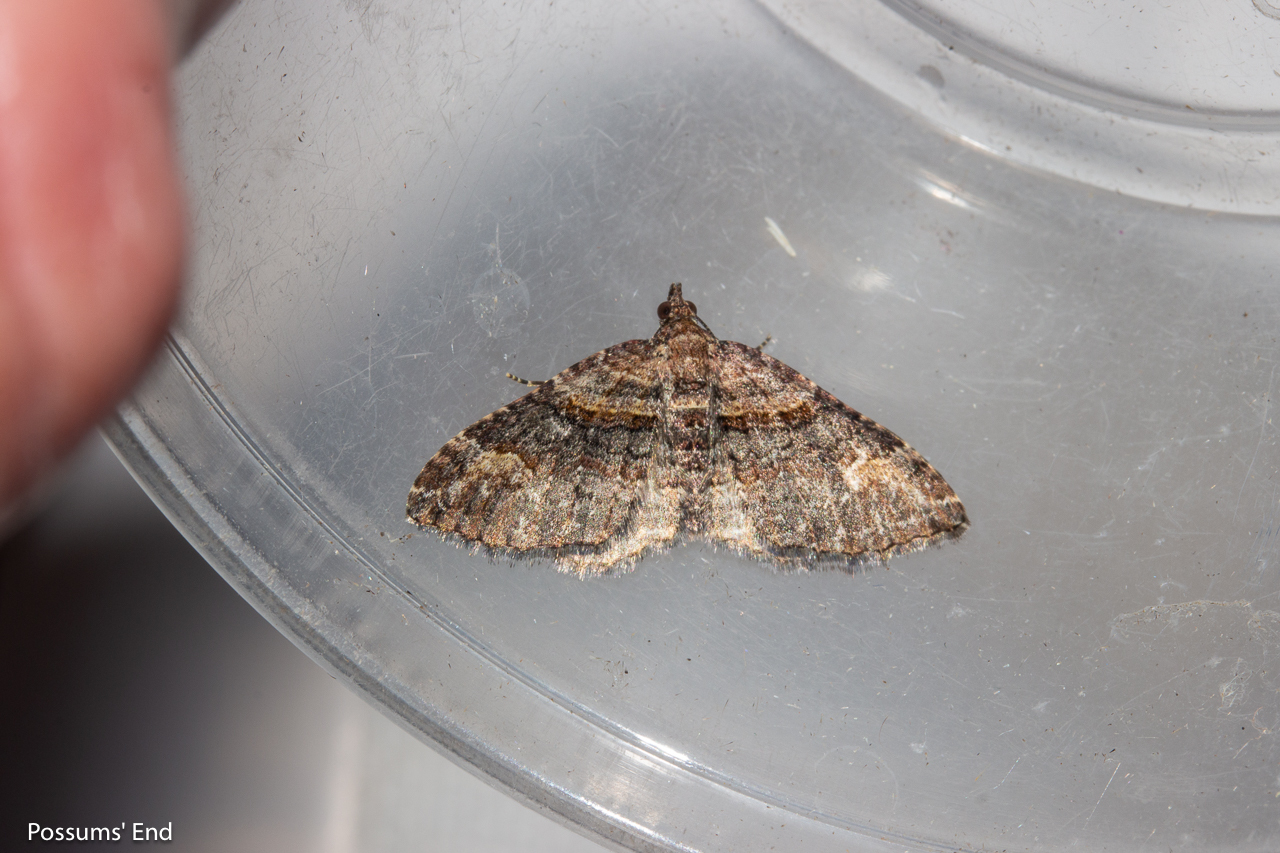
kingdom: Animalia
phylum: Arthropoda
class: Insecta
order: Lepidoptera
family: Geometridae
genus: Epyaxa
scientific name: Epyaxa lucidata
